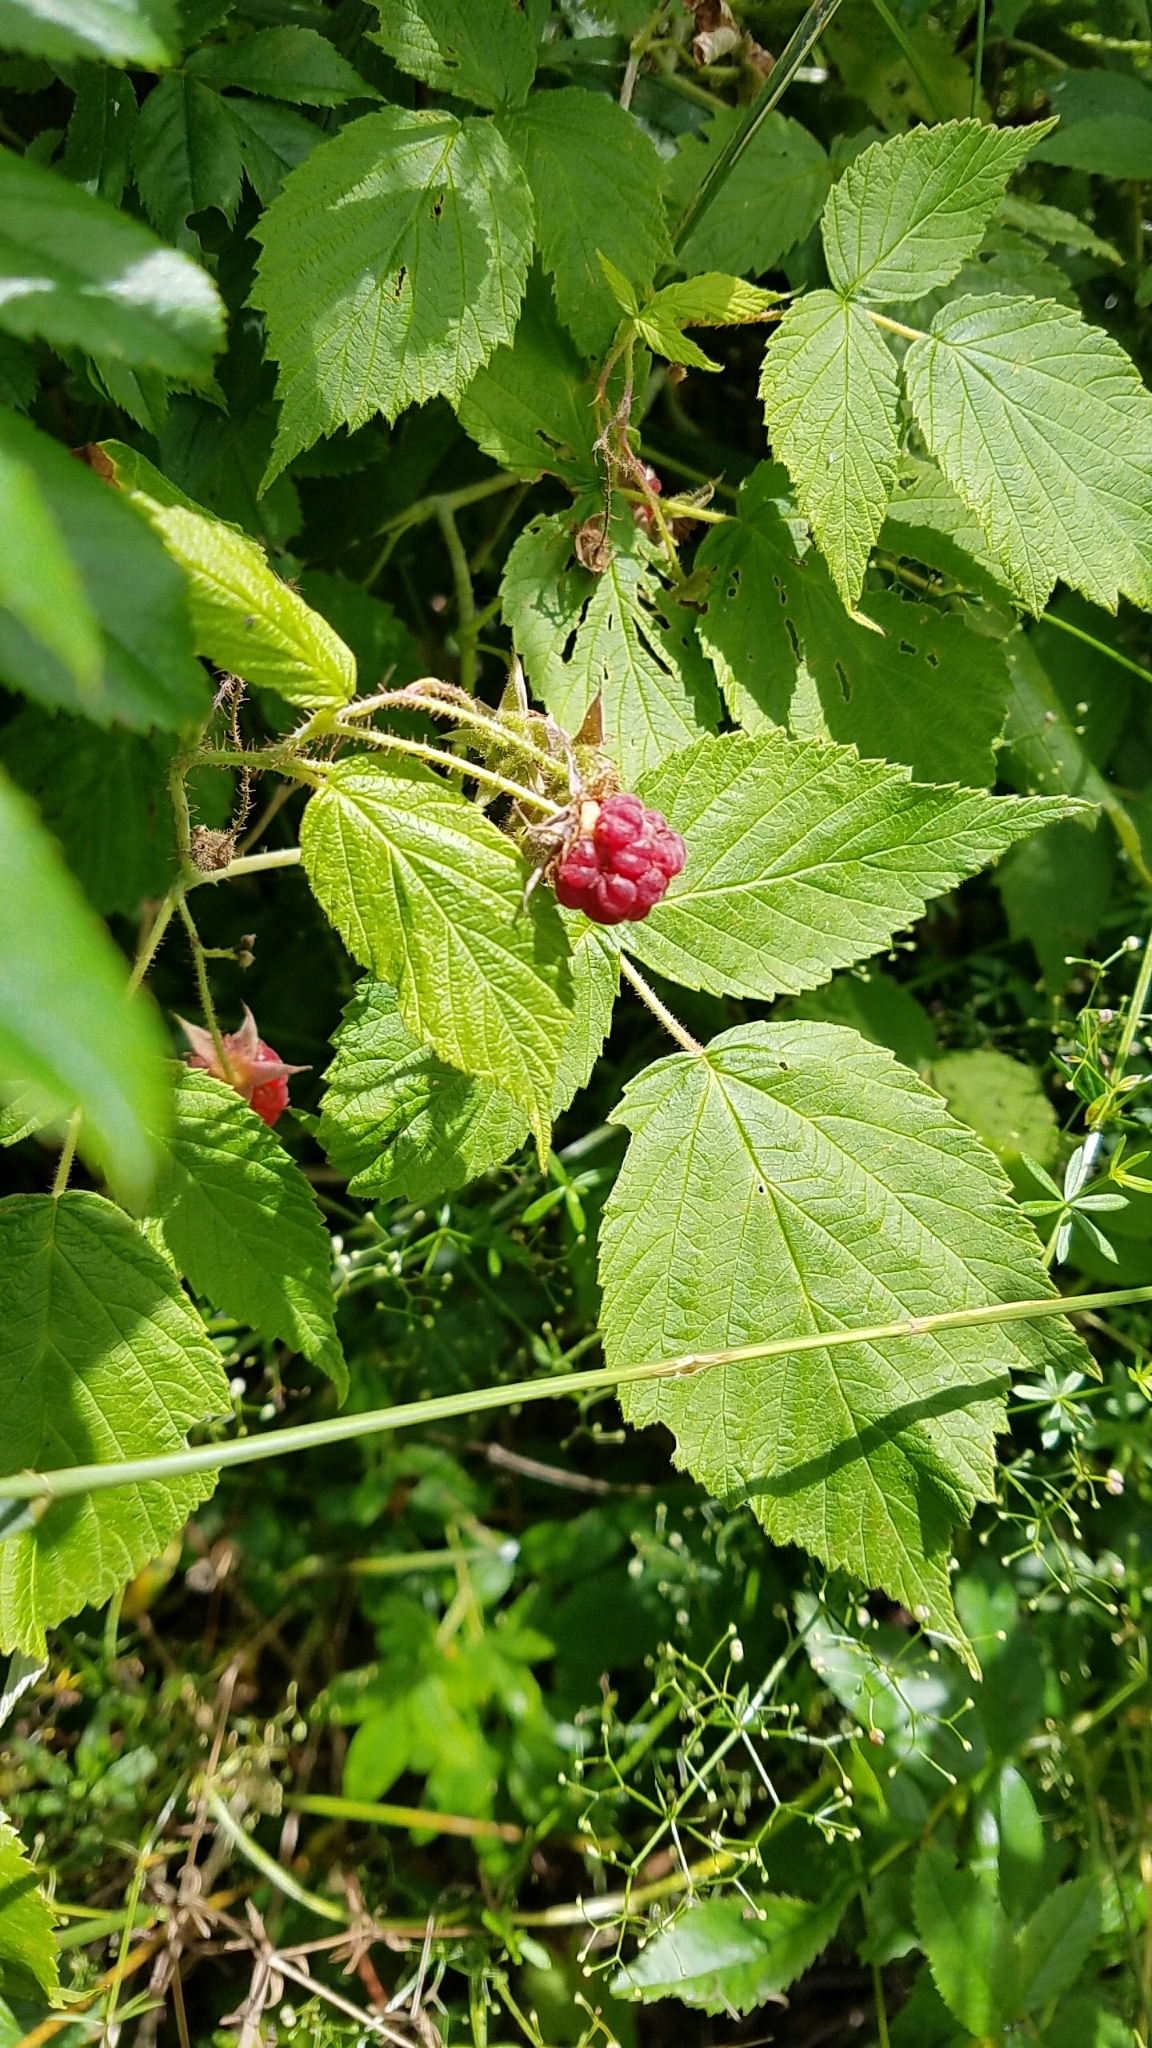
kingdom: Plantae
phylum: Tracheophyta
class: Magnoliopsida
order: Rosales
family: Rosaceae
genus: Rubus
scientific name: Rubus idaeus
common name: Raspberry
